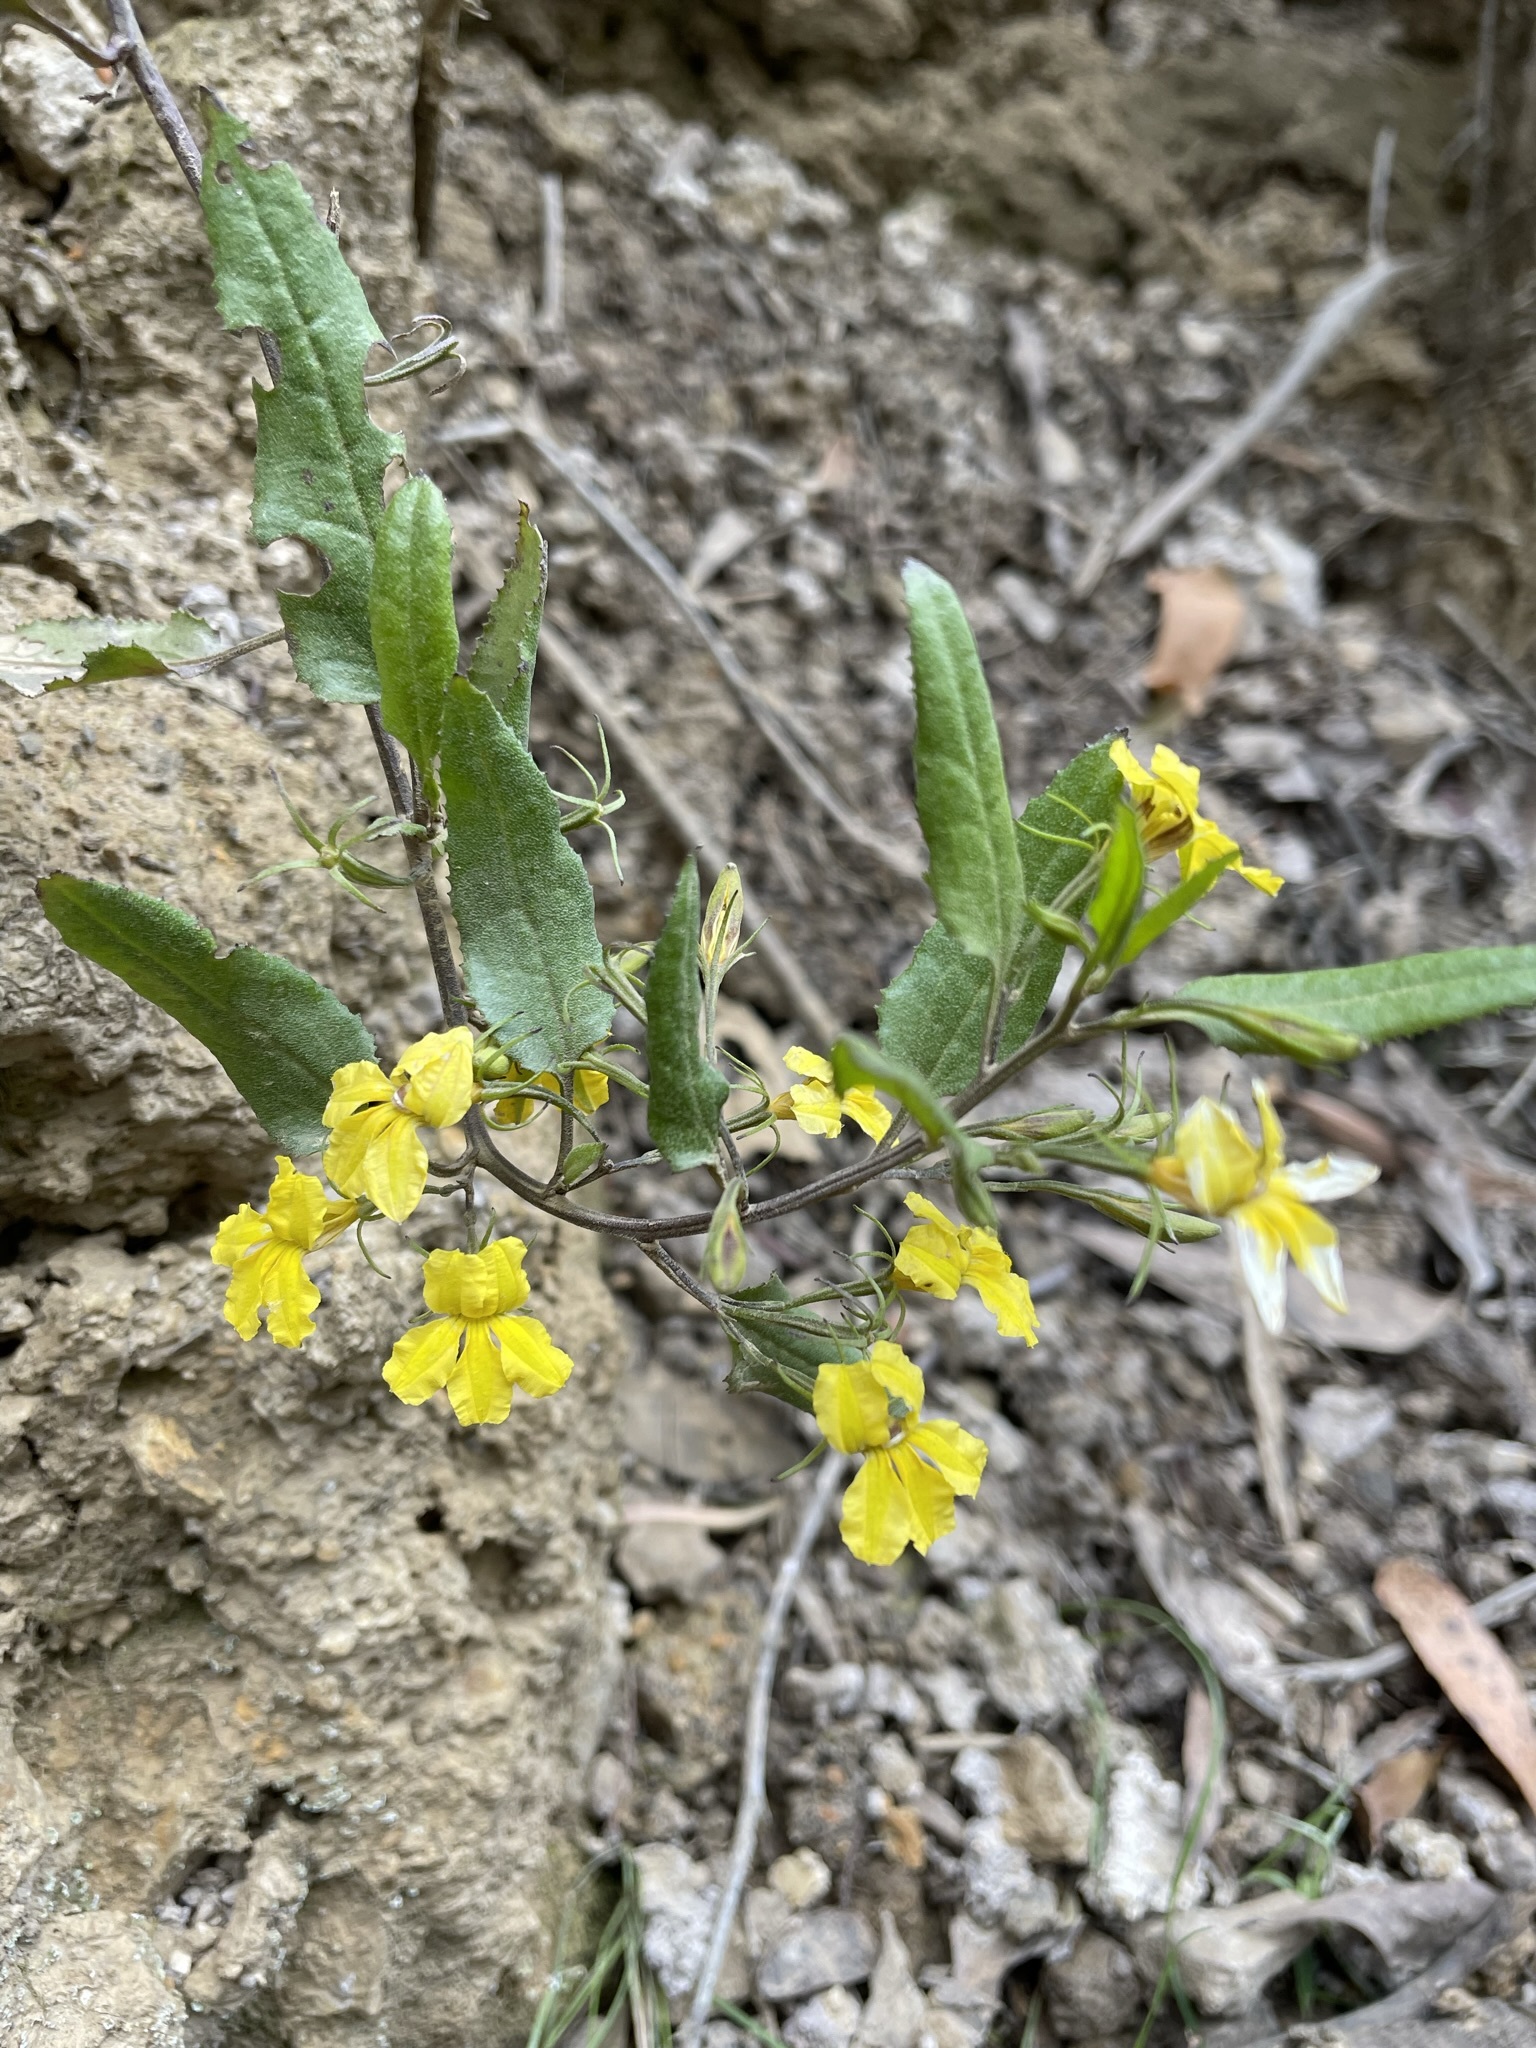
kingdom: Plantae
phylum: Tracheophyta
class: Magnoliopsida
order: Asterales
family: Goodeniaceae
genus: Goodenia
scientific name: Goodenia ovata
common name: Hop goodenia
